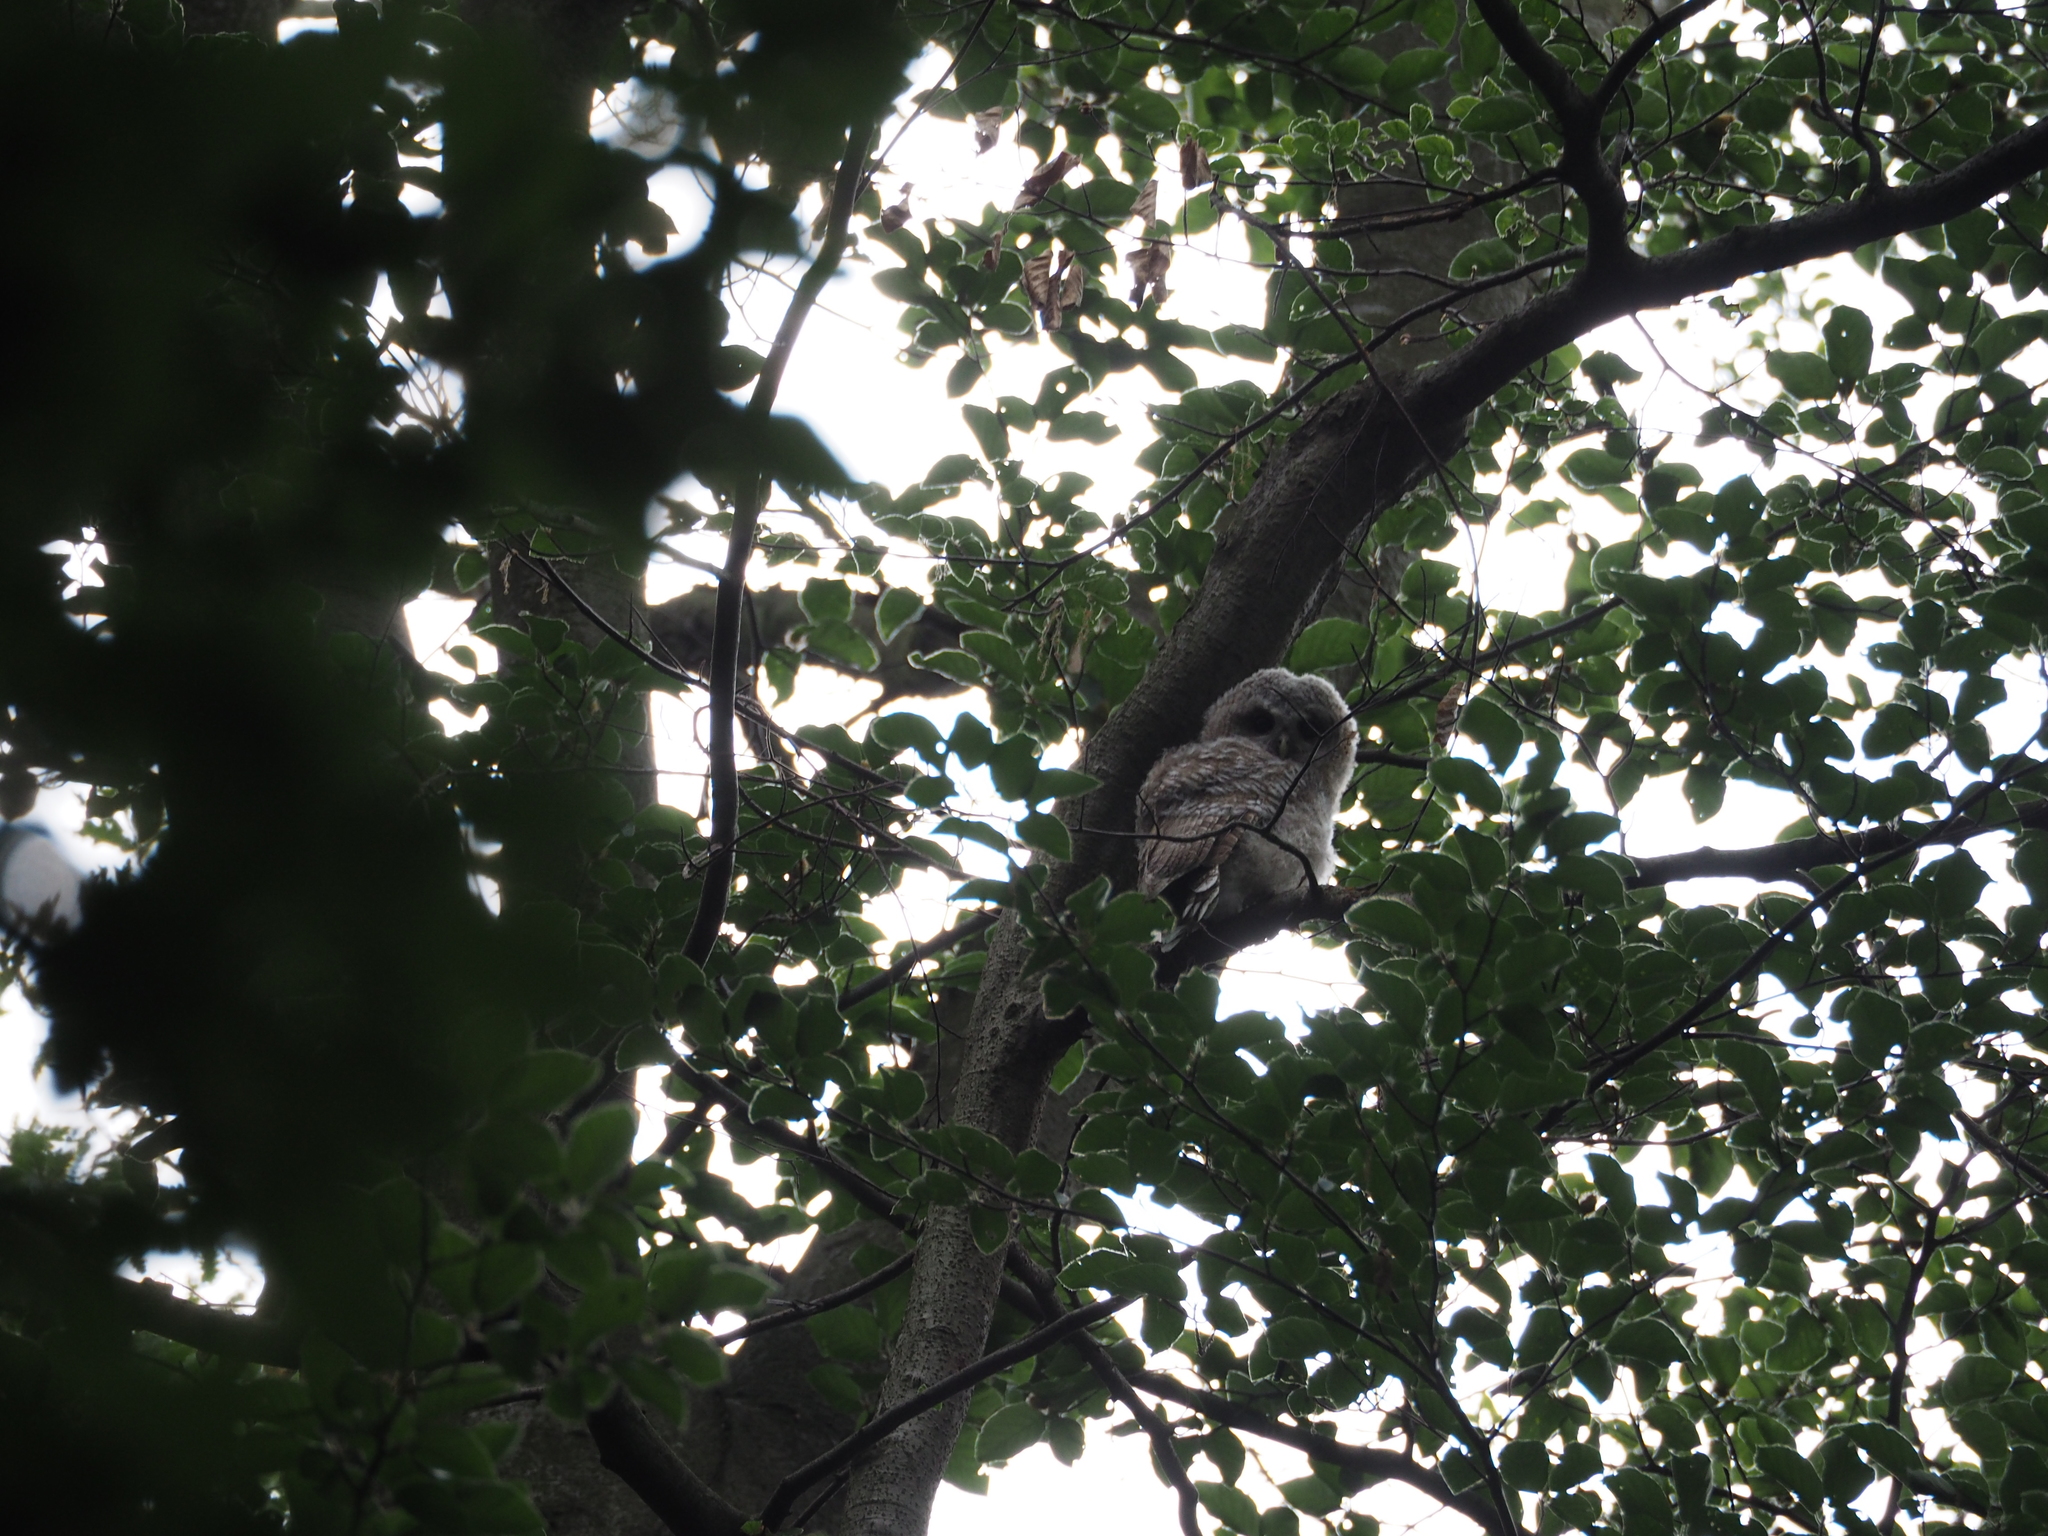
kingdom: Animalia
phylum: Chordata
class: Aves
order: Strigiformes
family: Strigidae
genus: Strix
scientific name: Strix aluco
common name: Tawny owl
